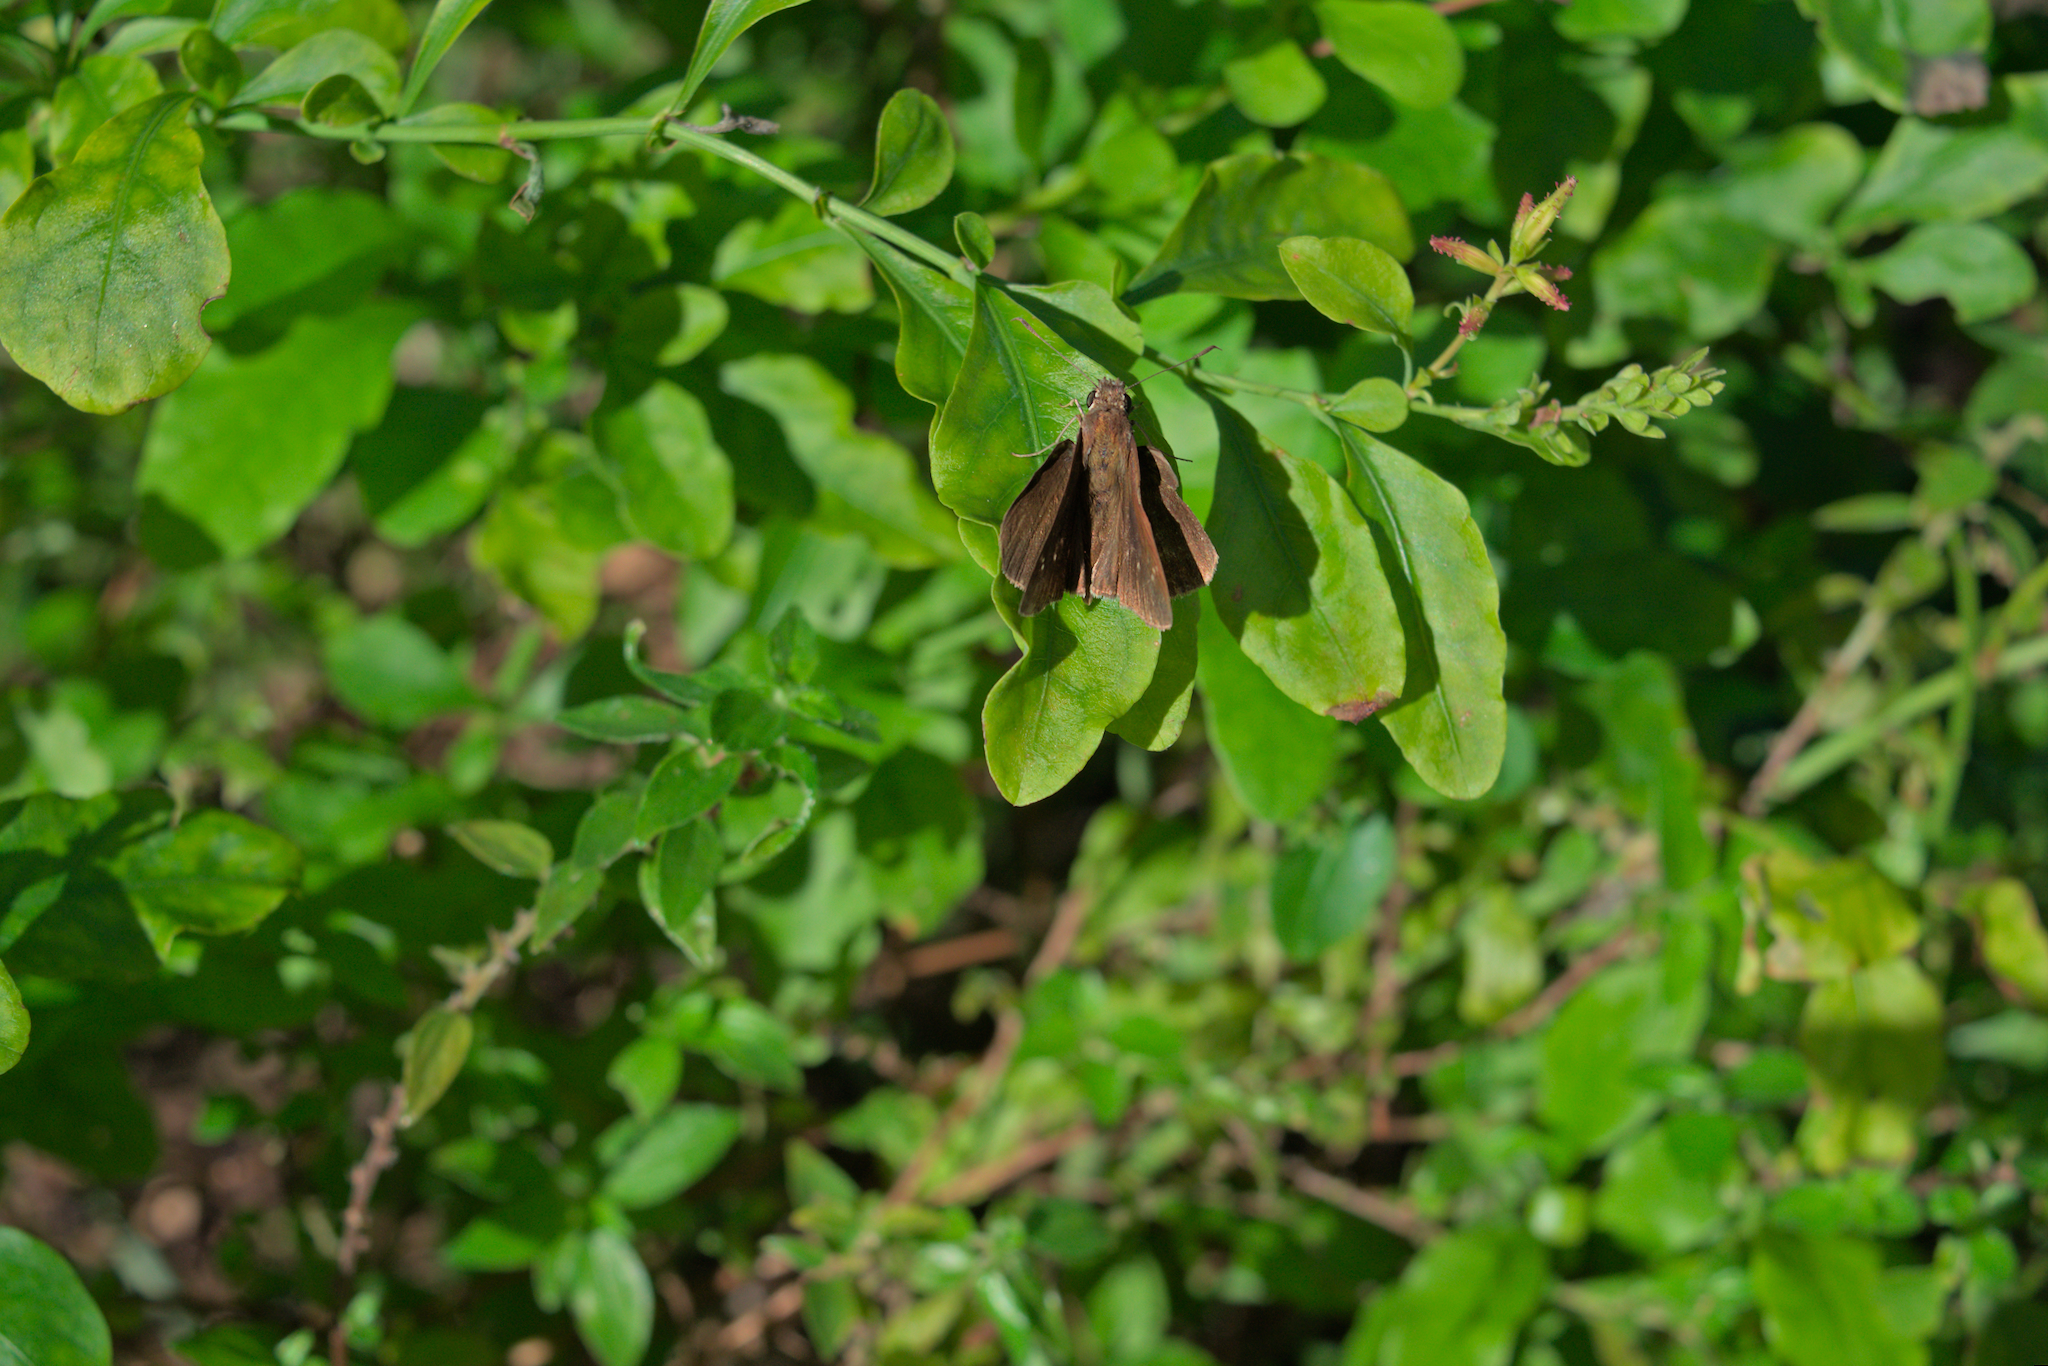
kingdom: Animalia
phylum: Arthropoda
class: Insecta
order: Lepidoptera
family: Hesperiidae
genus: Lerema
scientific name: Lerema accius
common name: Clouded skipper
